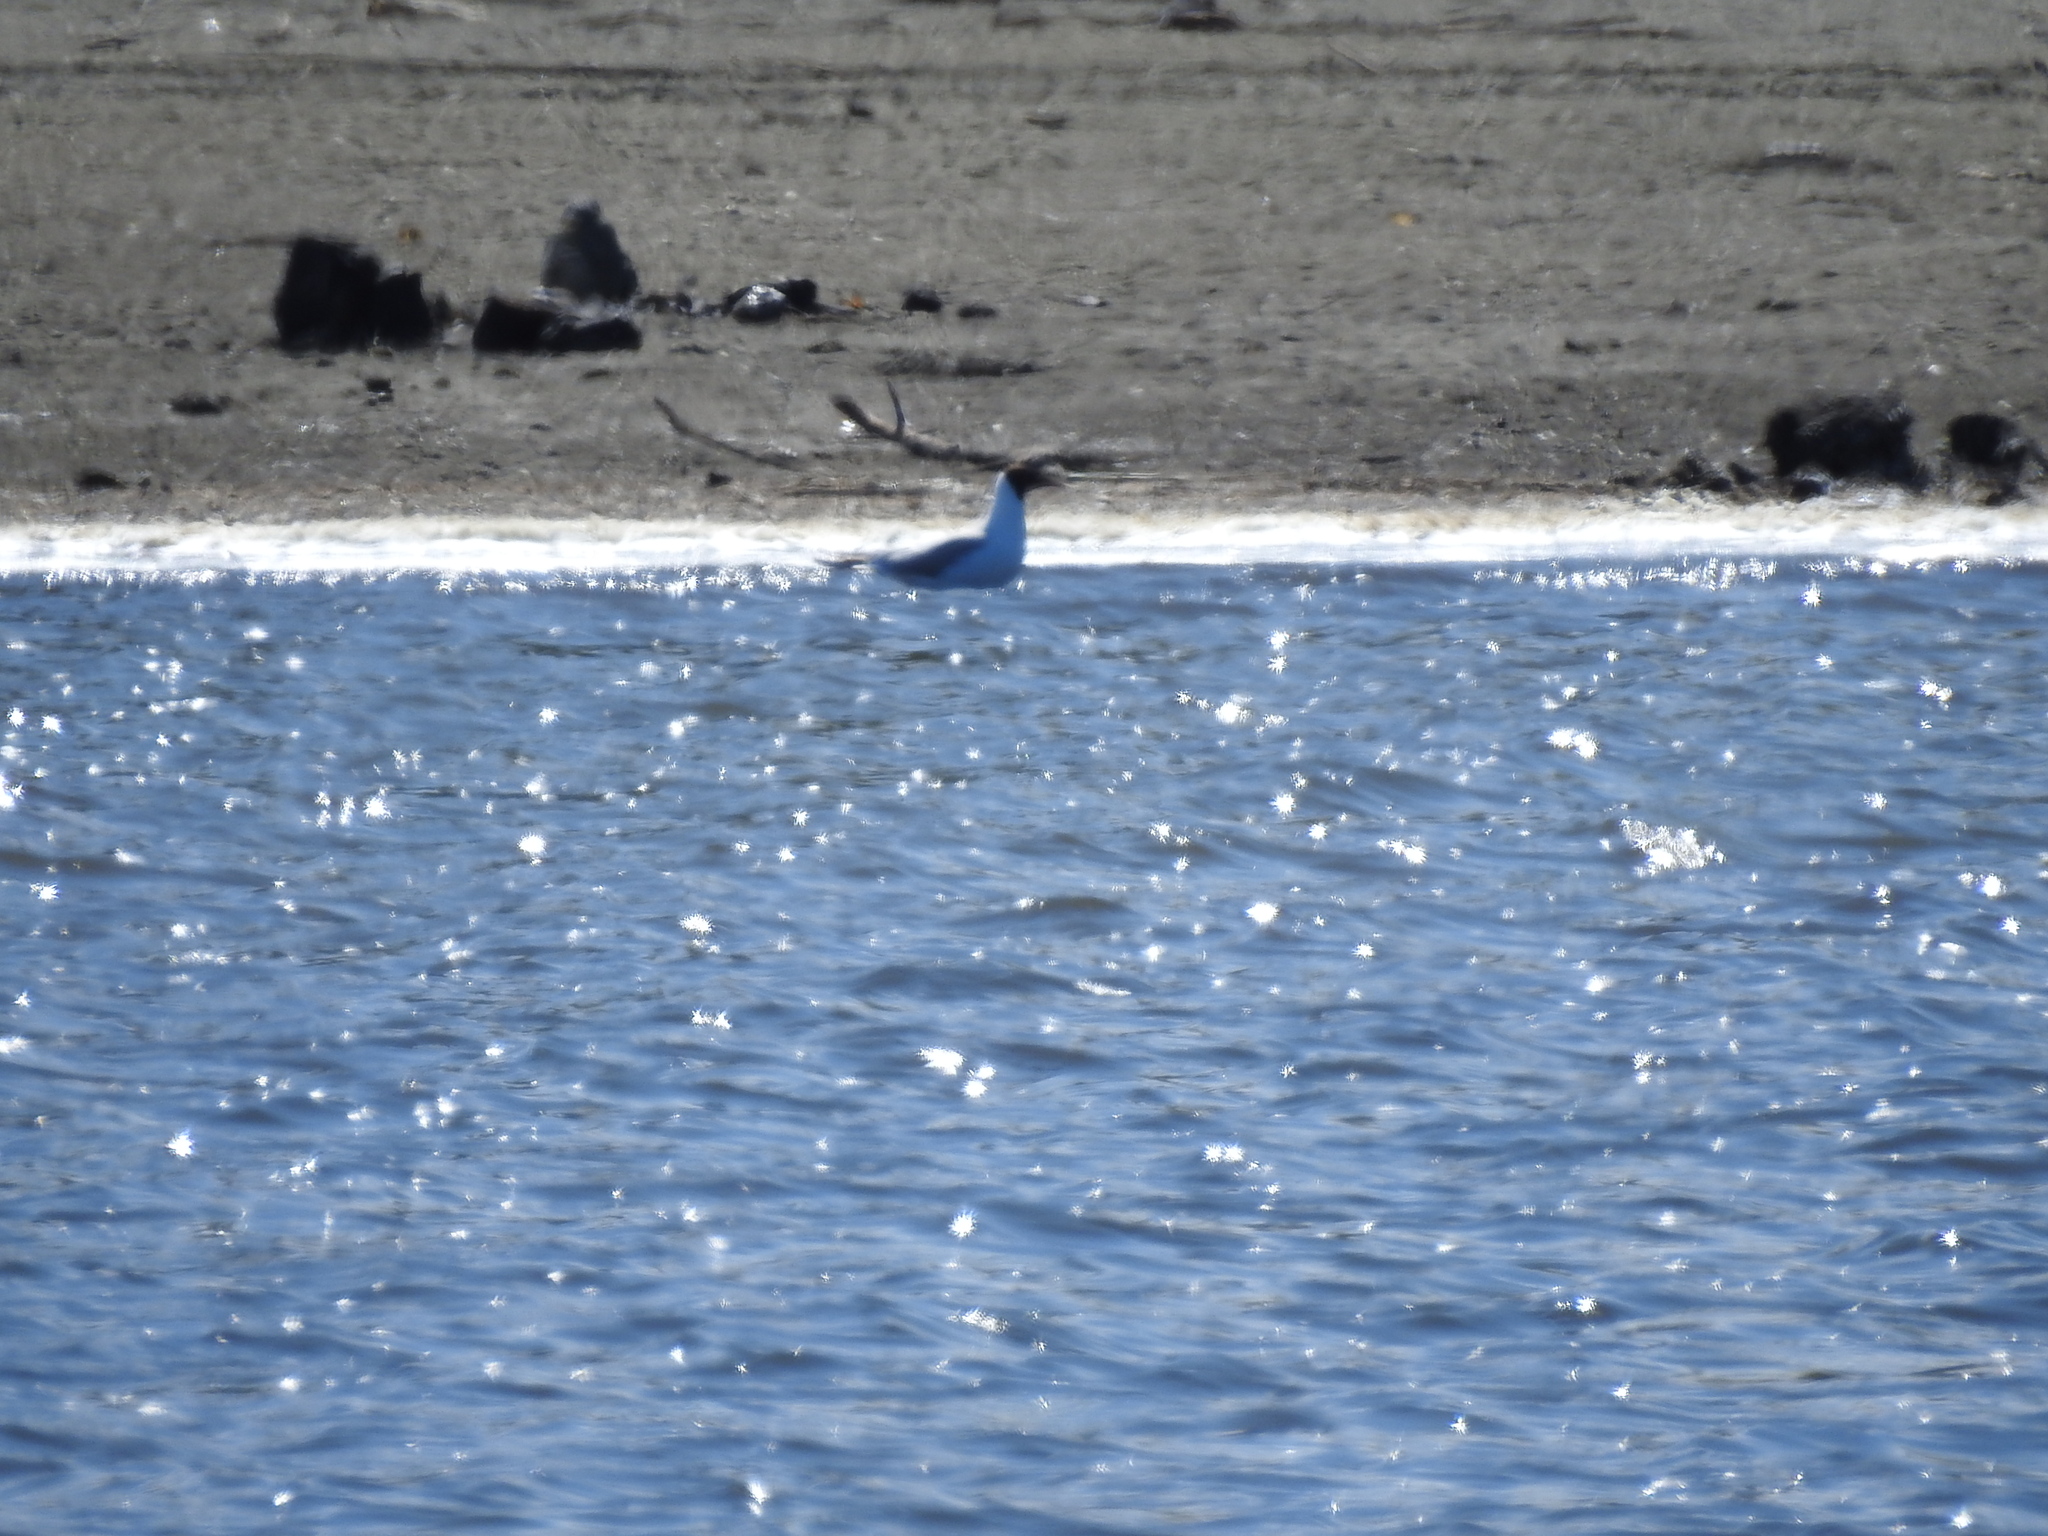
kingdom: Animalia
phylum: Chordata
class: Aves
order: Charadriiformes
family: Laridae
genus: Chroicocephalus
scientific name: Chroicocephalus ridibundus
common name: Black-headed gull
